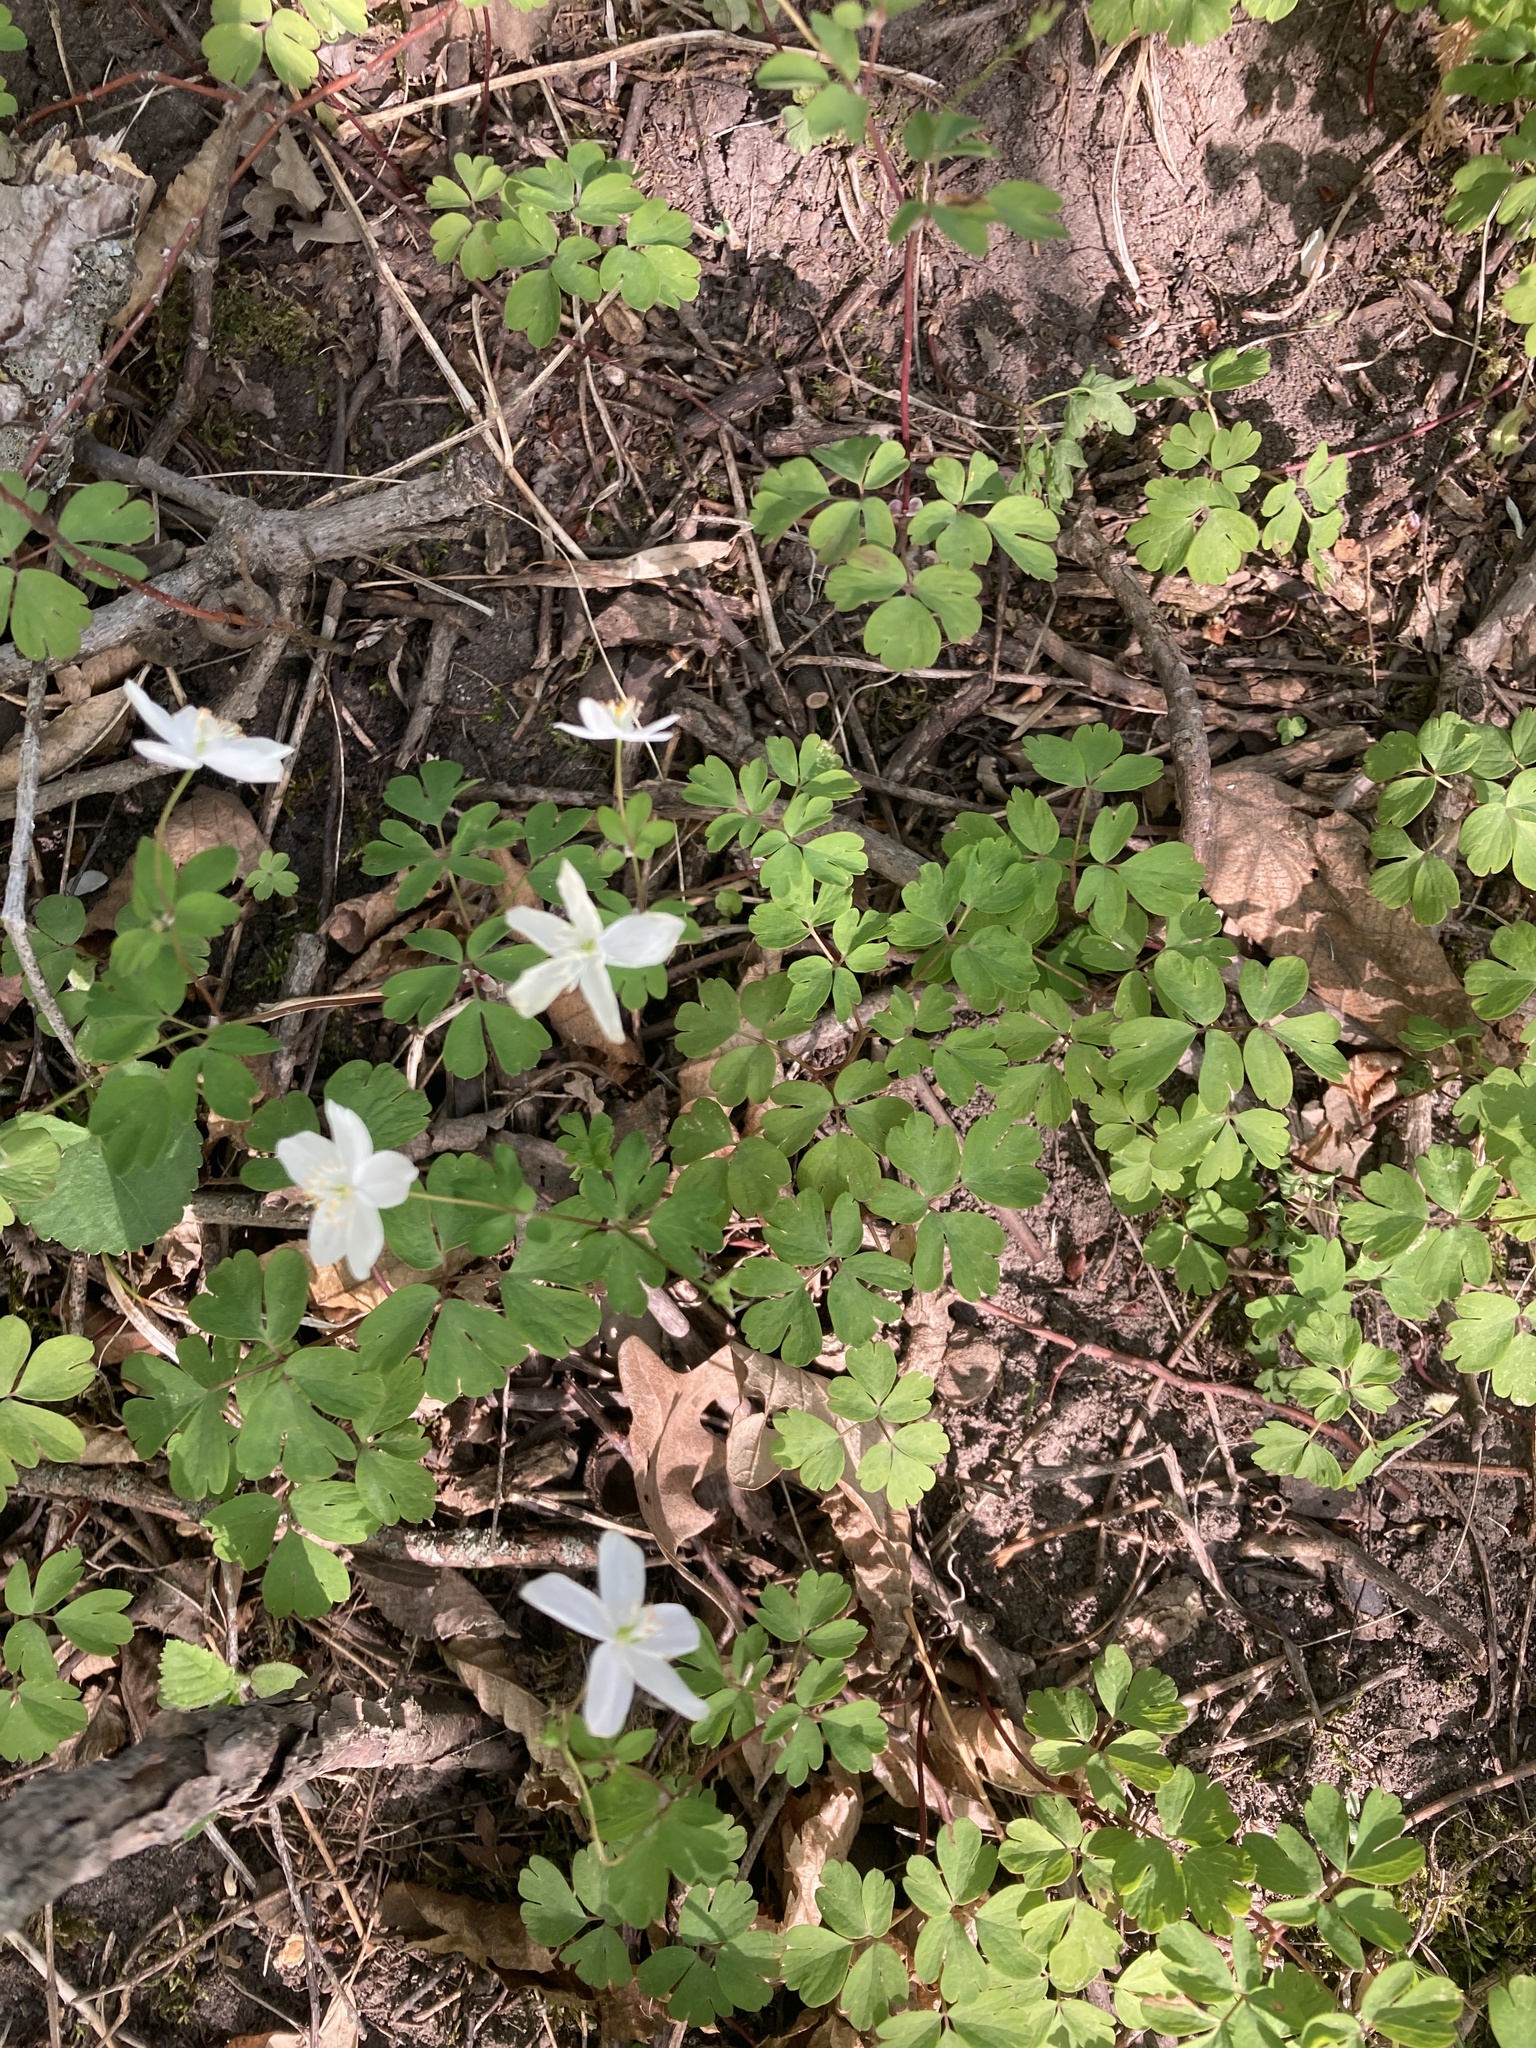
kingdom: Plantae
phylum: Tracheophyta
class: Magnoliopsida
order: Ranunculales
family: Ranunculaceae
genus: Enemion
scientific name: Enemion biternatum
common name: Eastern false rue-anemone
